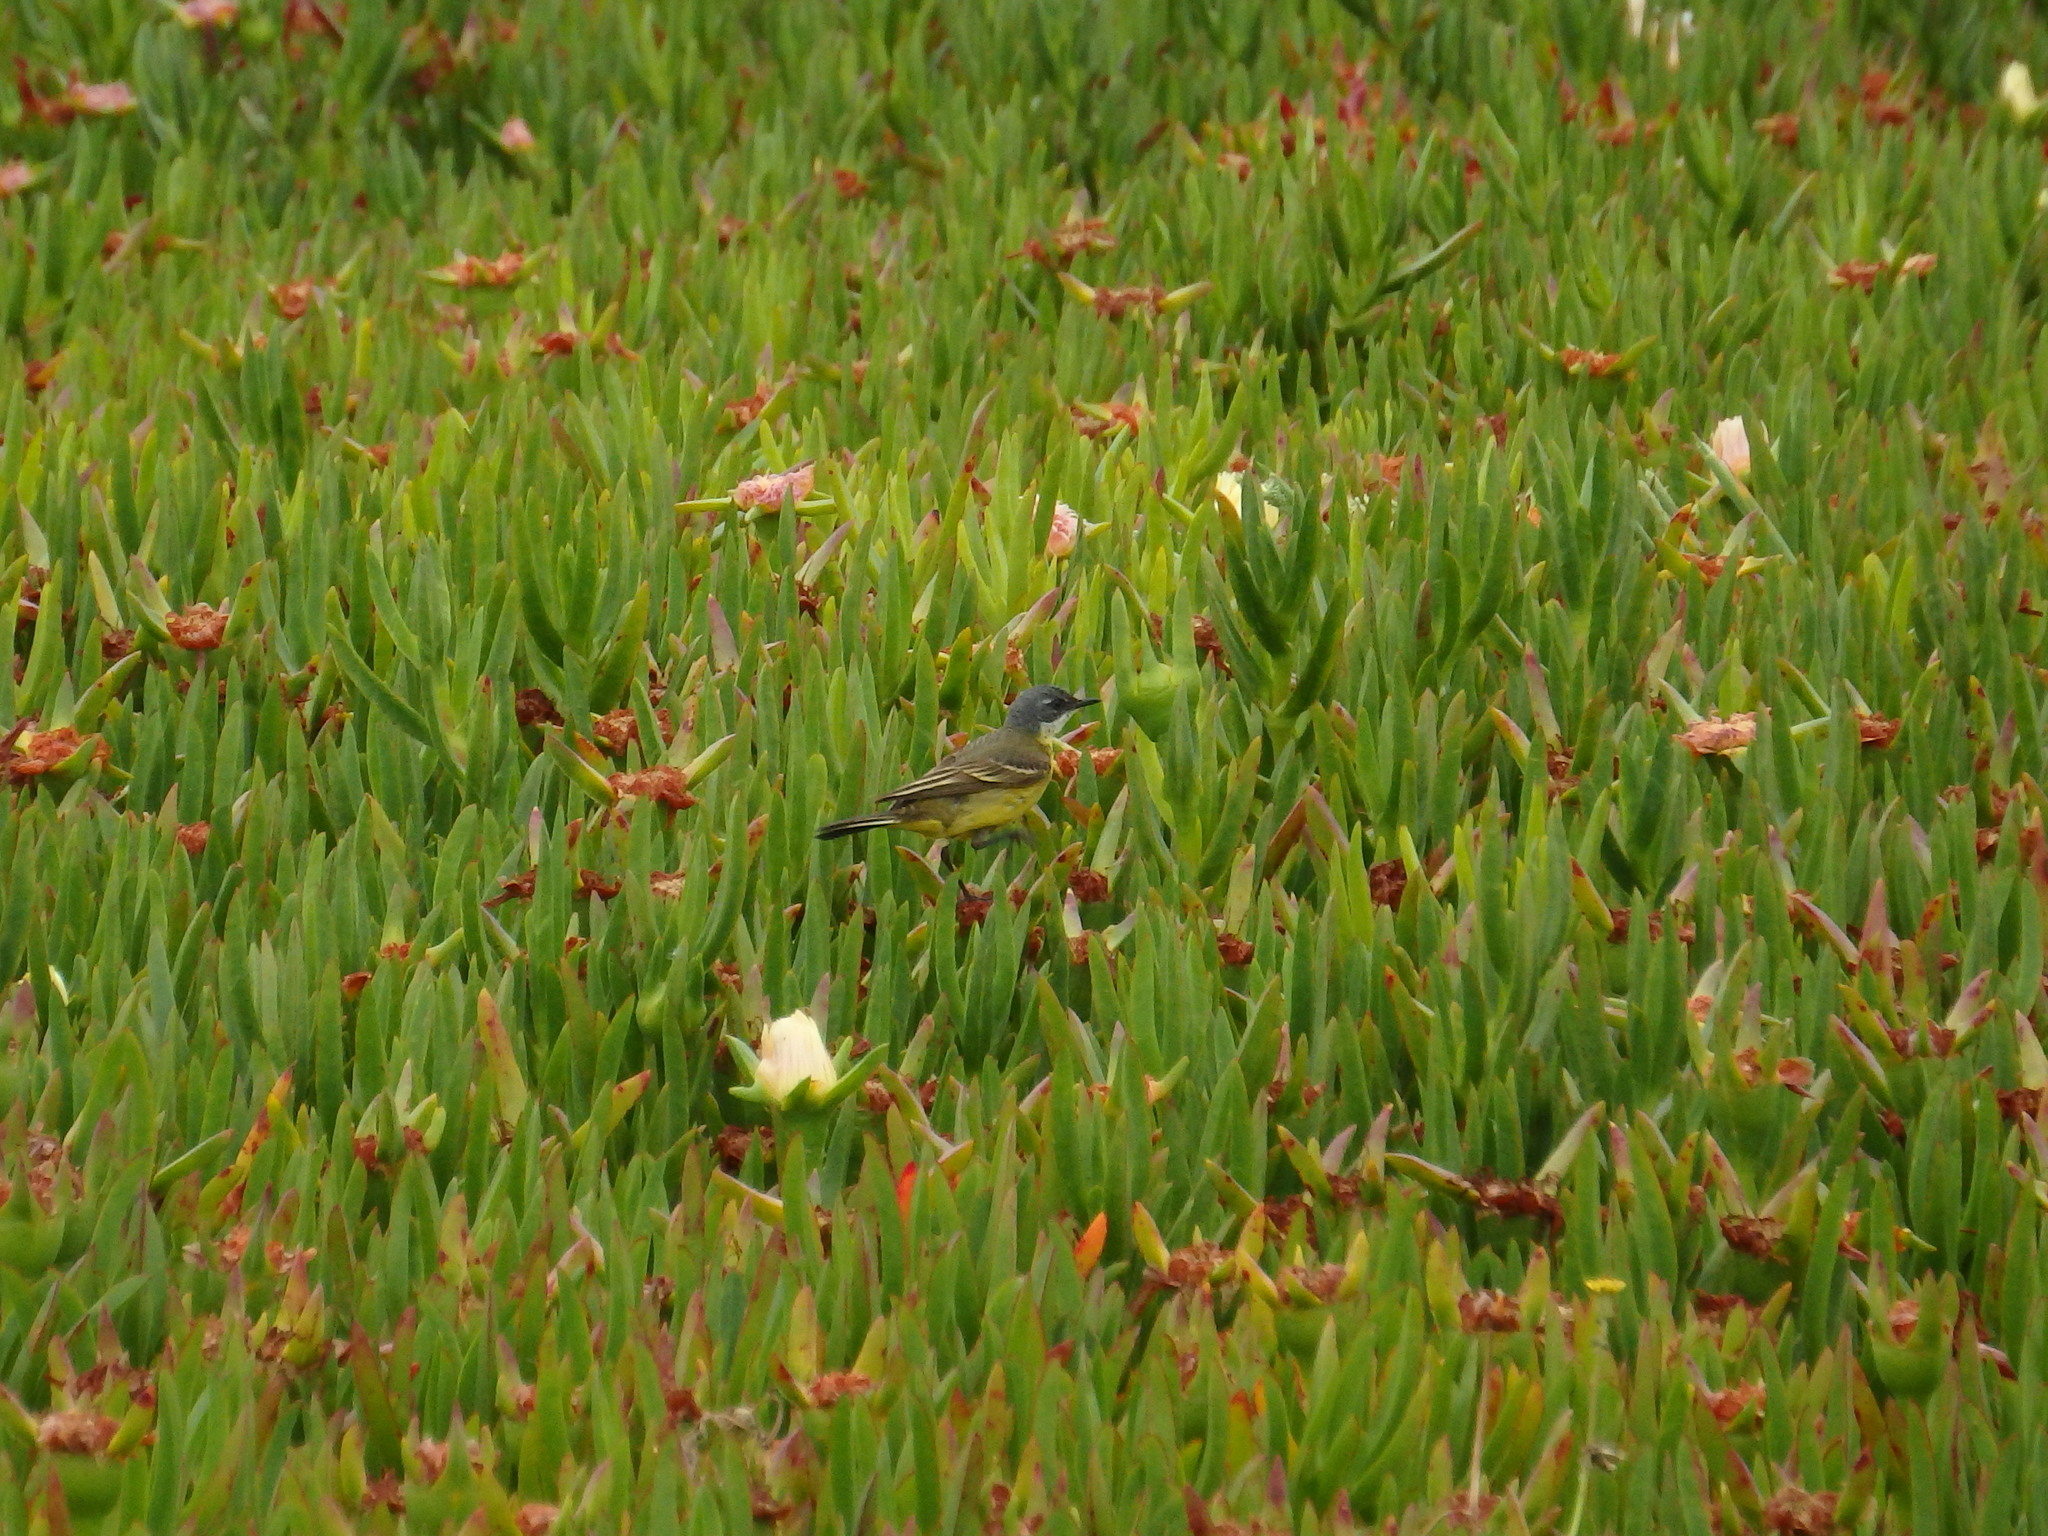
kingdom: Animalia
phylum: Chordata
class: Aves
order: Passeriformes
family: Motacillidae
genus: Motacilla
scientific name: Motacilla flava
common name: Western yellow wagtail
